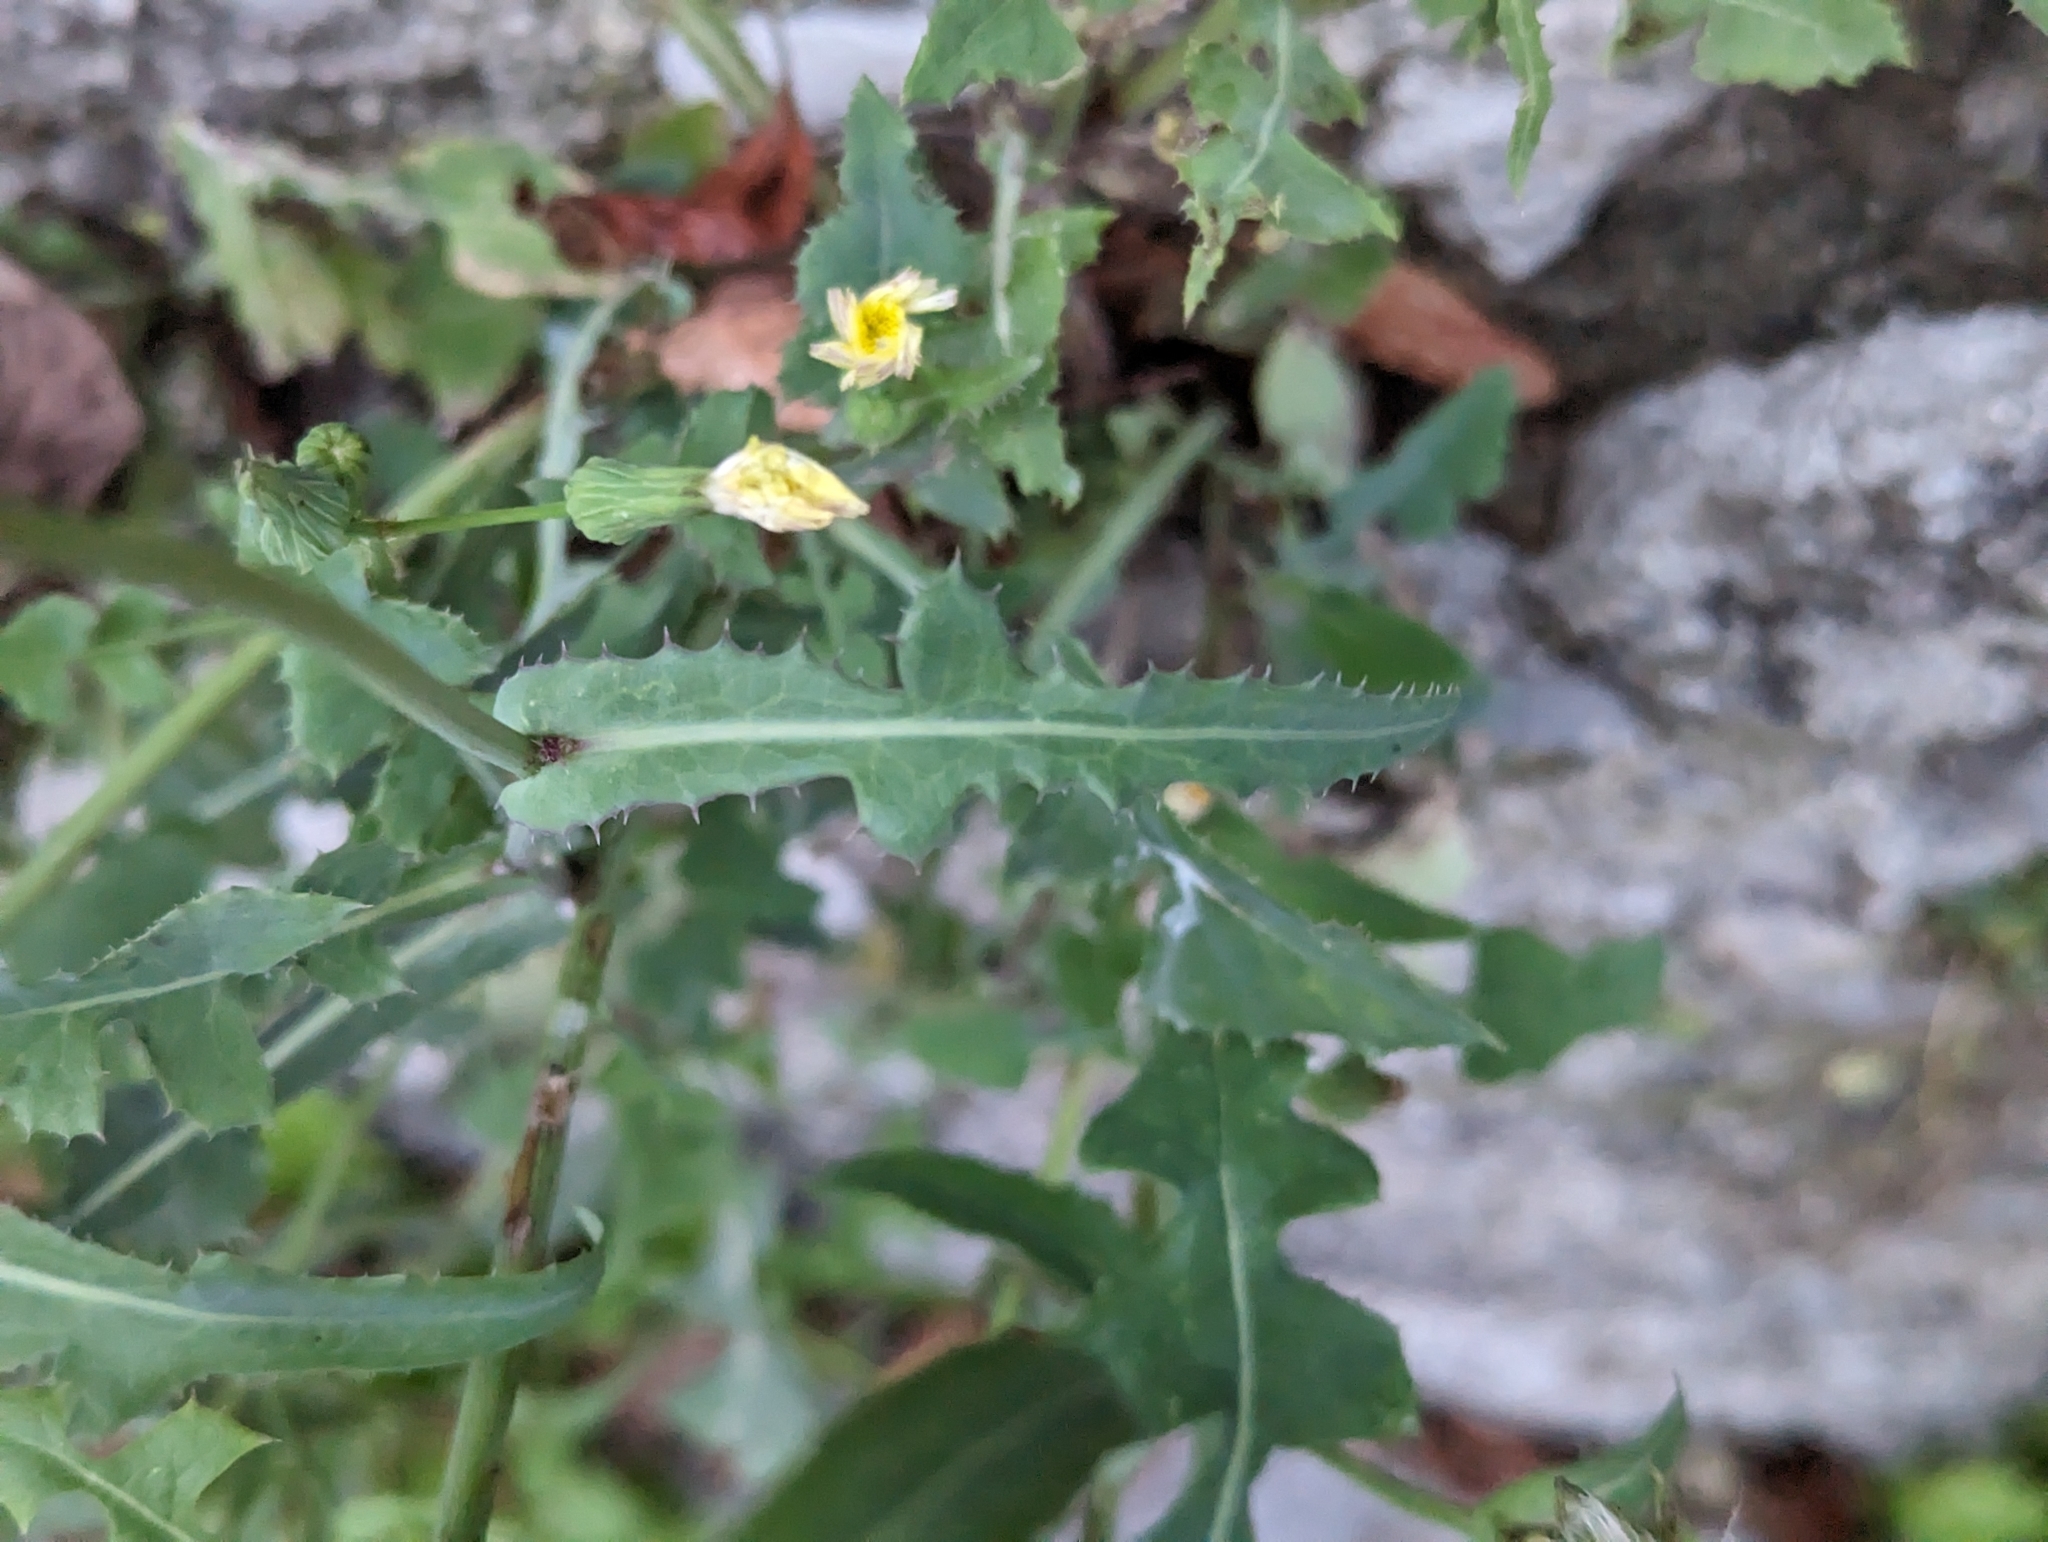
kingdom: Plantae
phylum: Tracheophyta
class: Magnoliopsida
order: Asterales
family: Asteraceae
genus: Sonchus
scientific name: Sonchus oleraceus
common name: Common sowthistle
